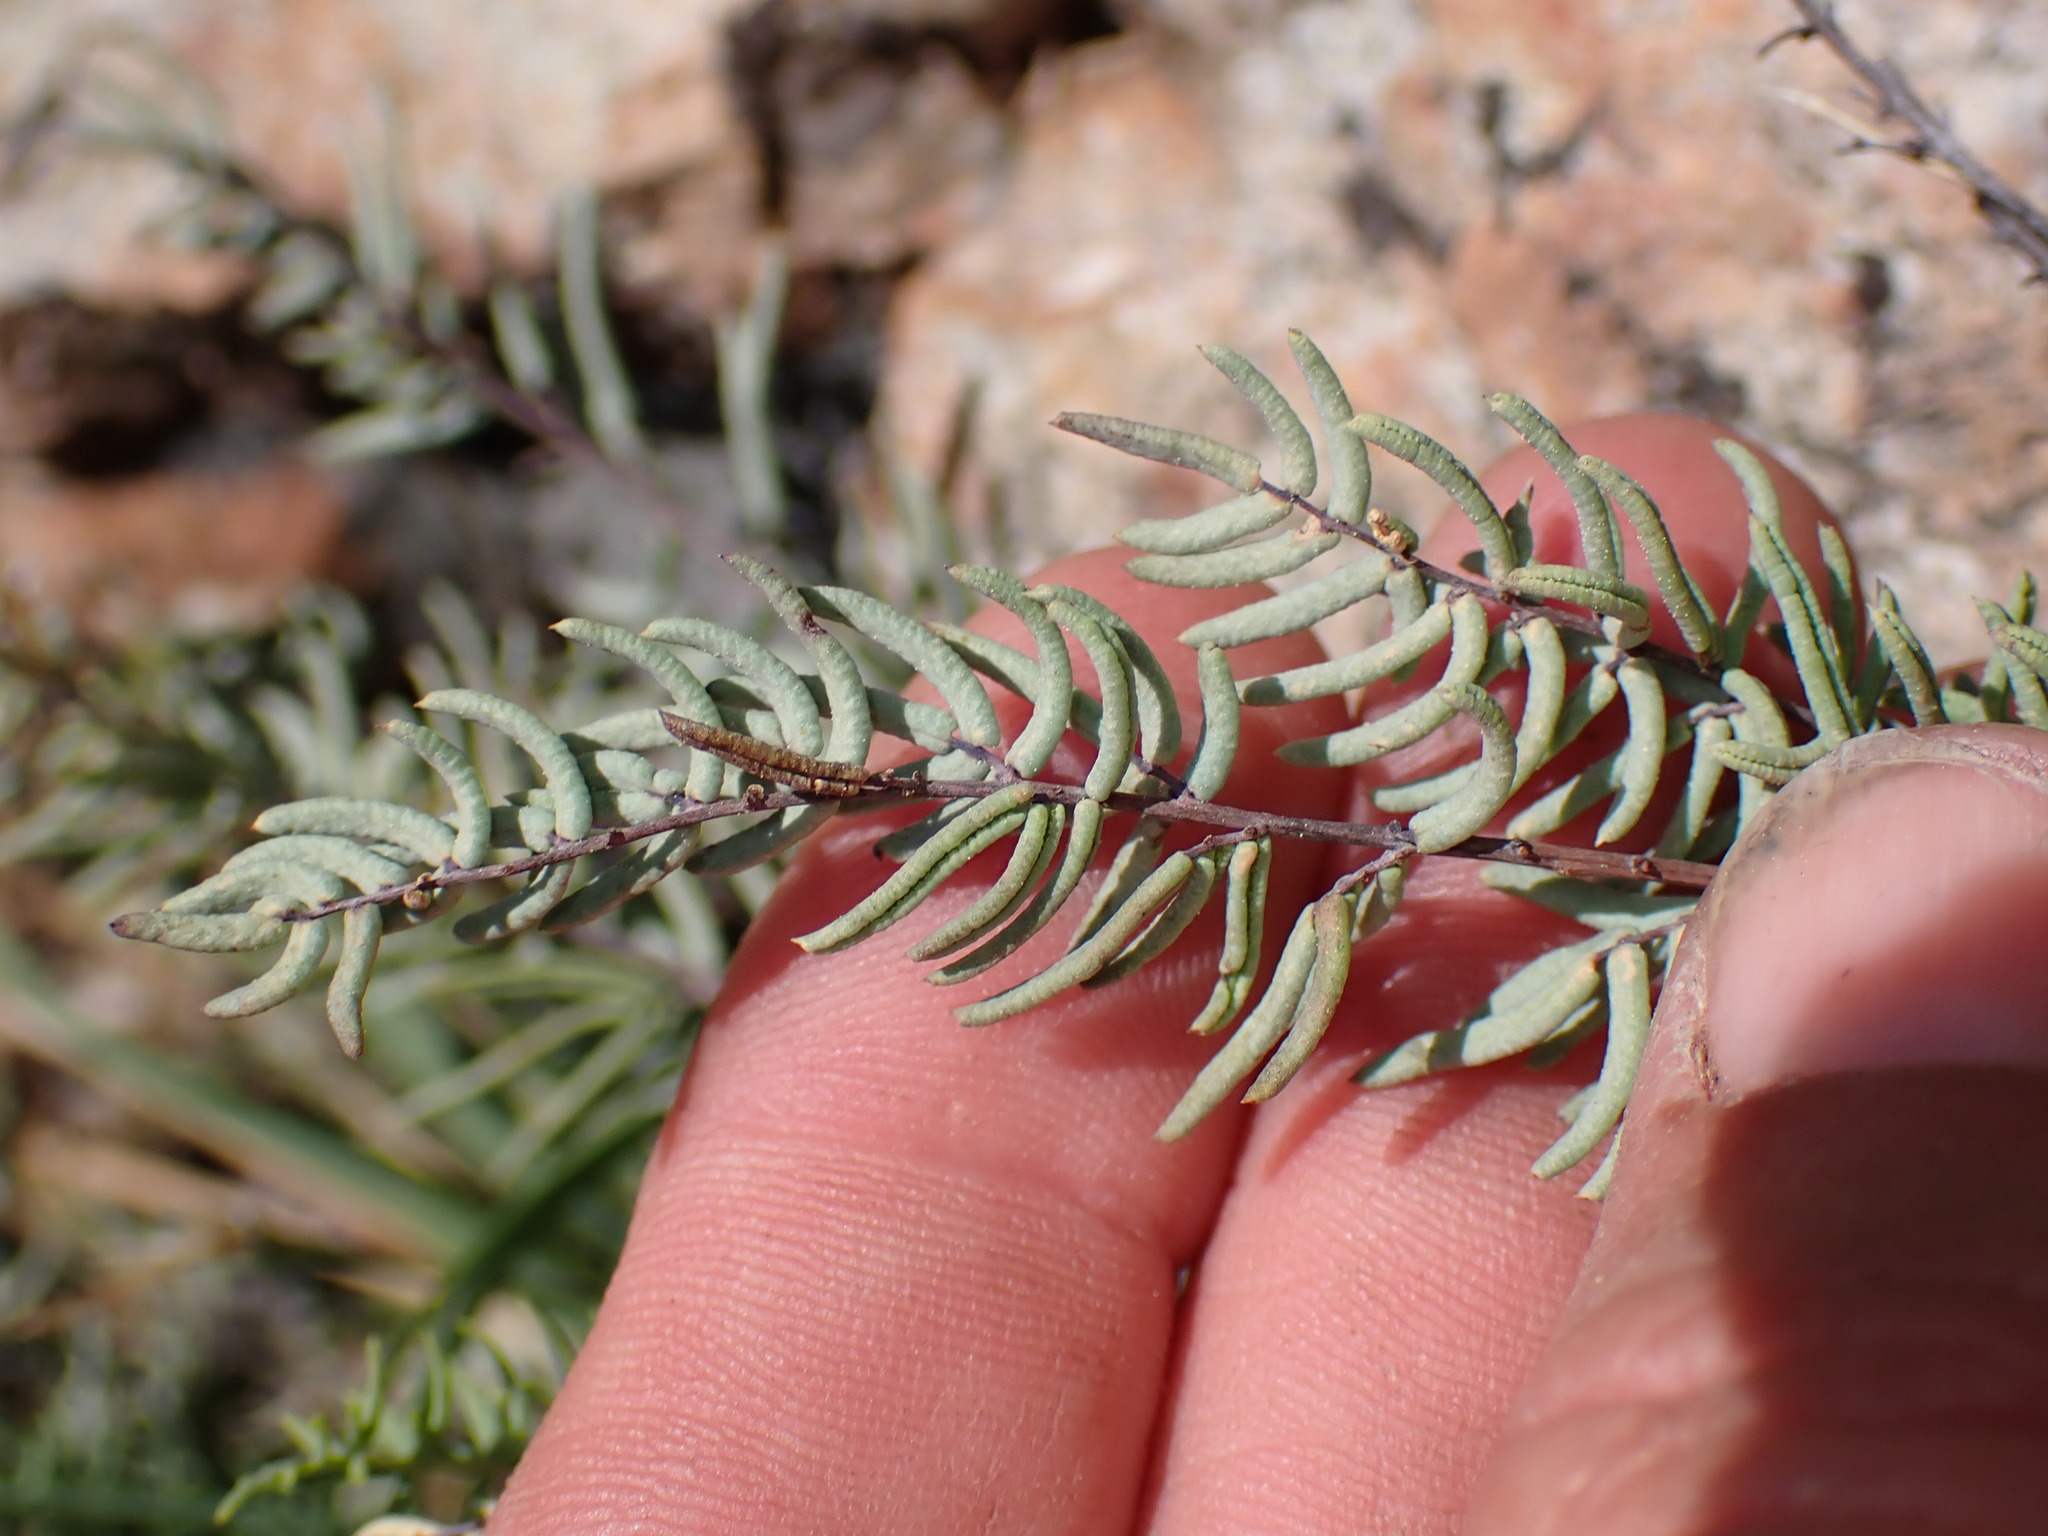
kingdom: Plantae
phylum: Tracheophyta
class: Polypodiopsida
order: Polypodiales
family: Pteridaceae
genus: Pellaea
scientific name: Pellaea brachyptera
